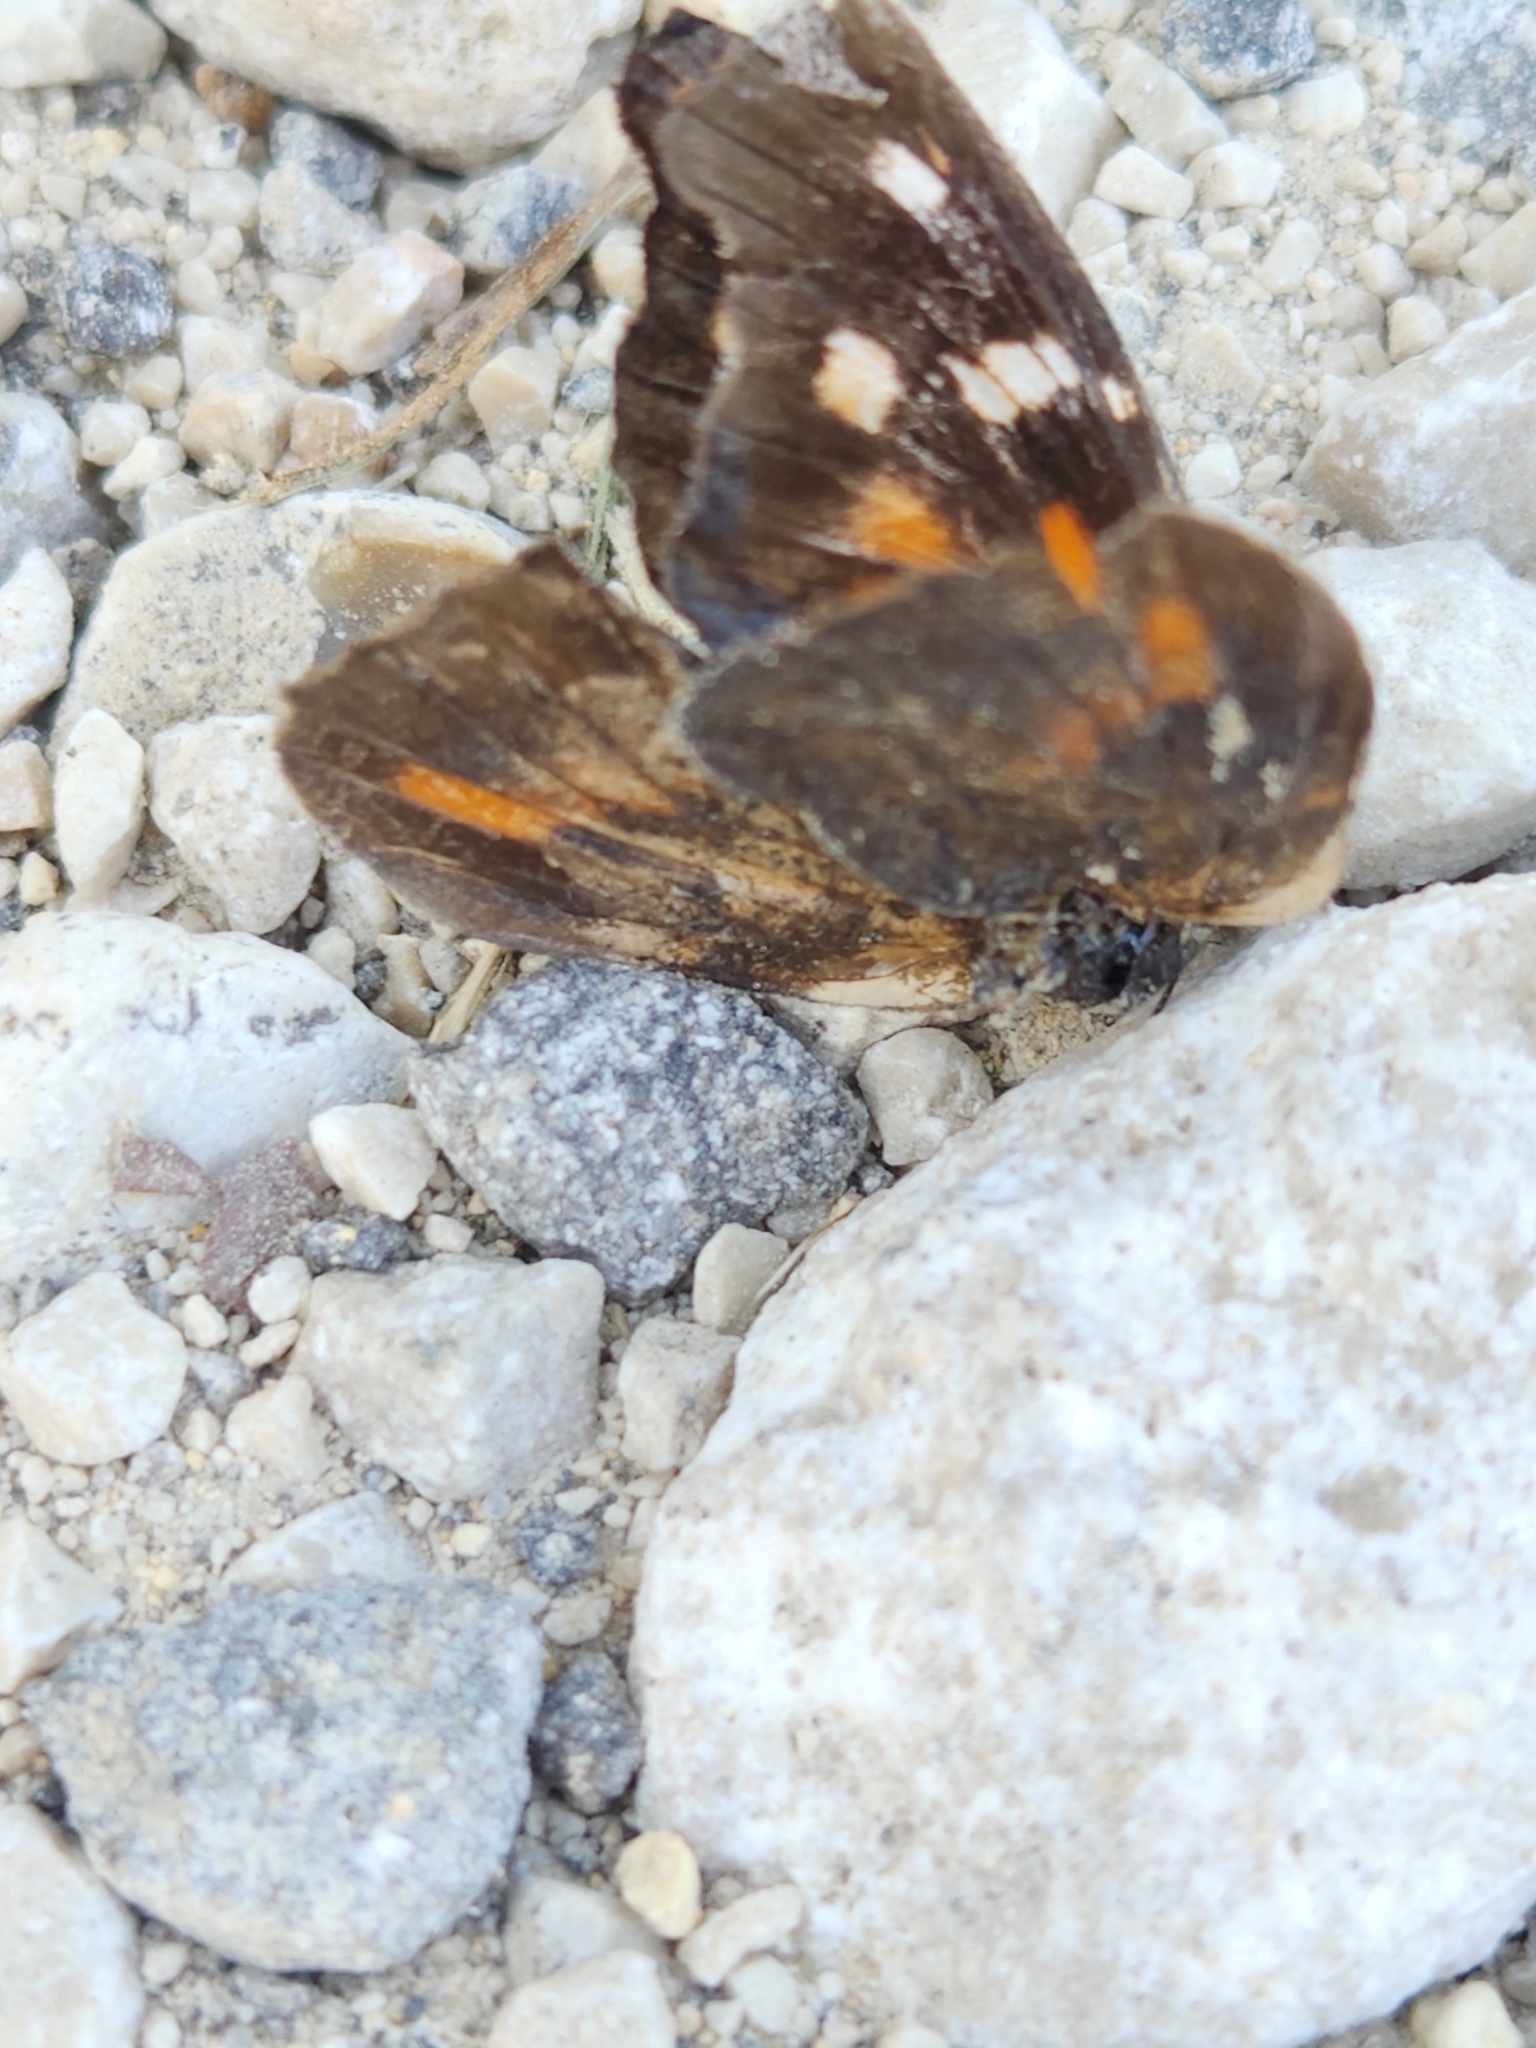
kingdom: Animalia
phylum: Arthropoda
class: Insecta
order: Lepidoptera
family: Nymphalidae
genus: Libytheana
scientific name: Libytheana carinenta
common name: American snout
